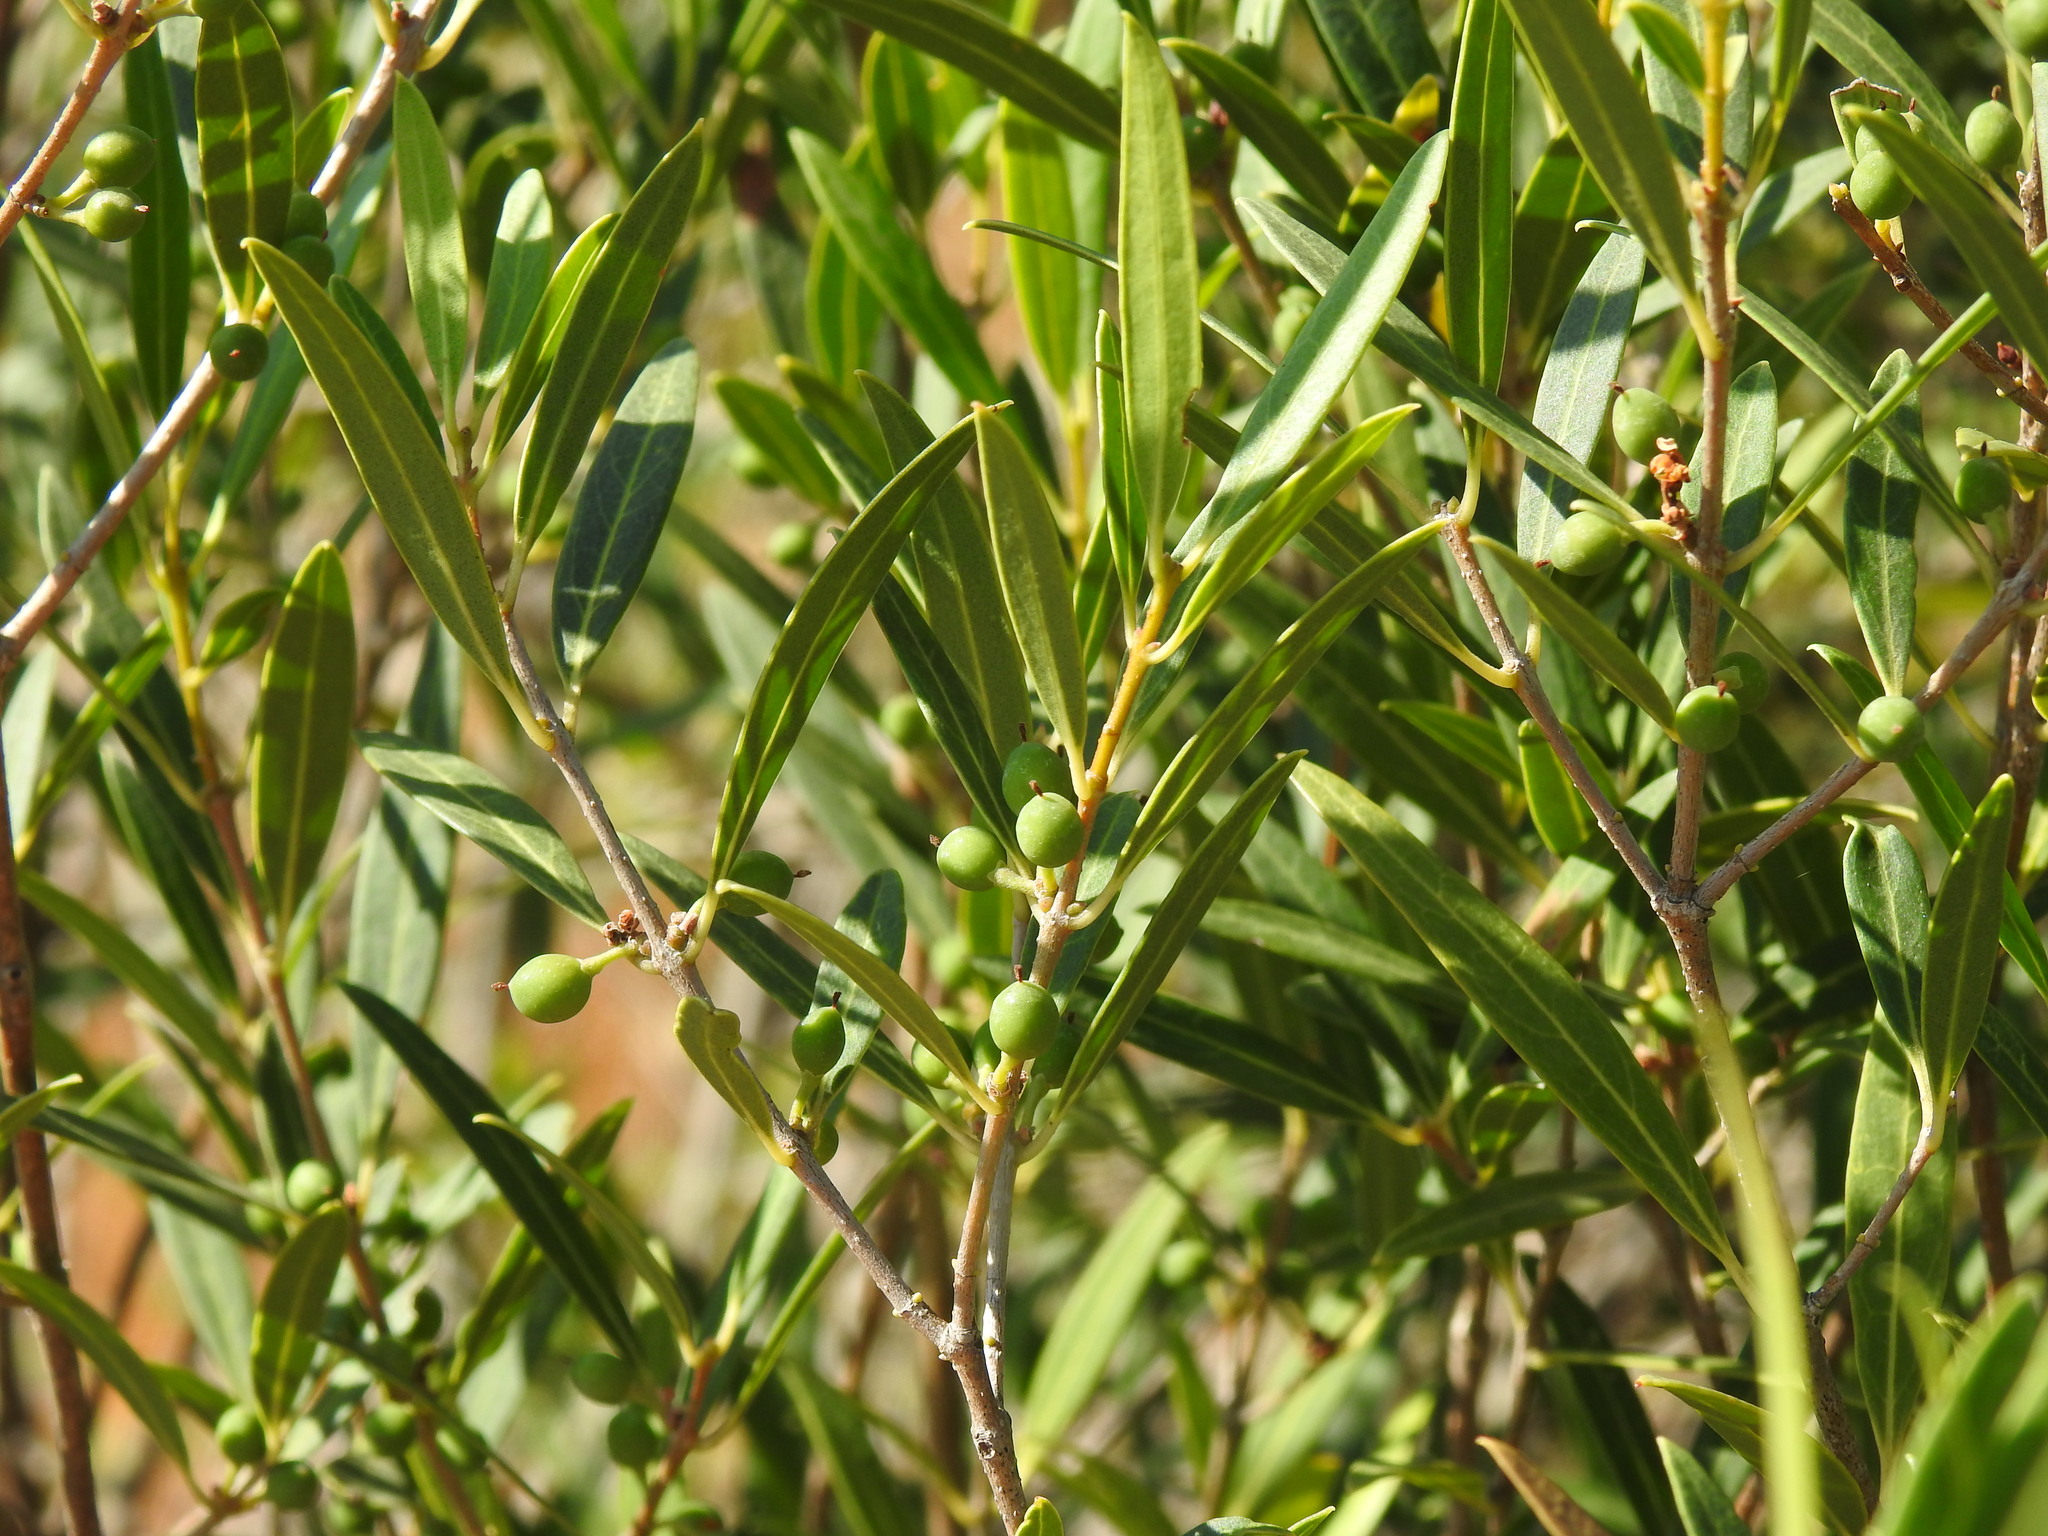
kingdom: Plantae
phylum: Tracheophyta
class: Magnoliopsida
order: Lamiales
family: Oleaceae
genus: Phillyrea
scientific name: Phillyrea angustifolia
